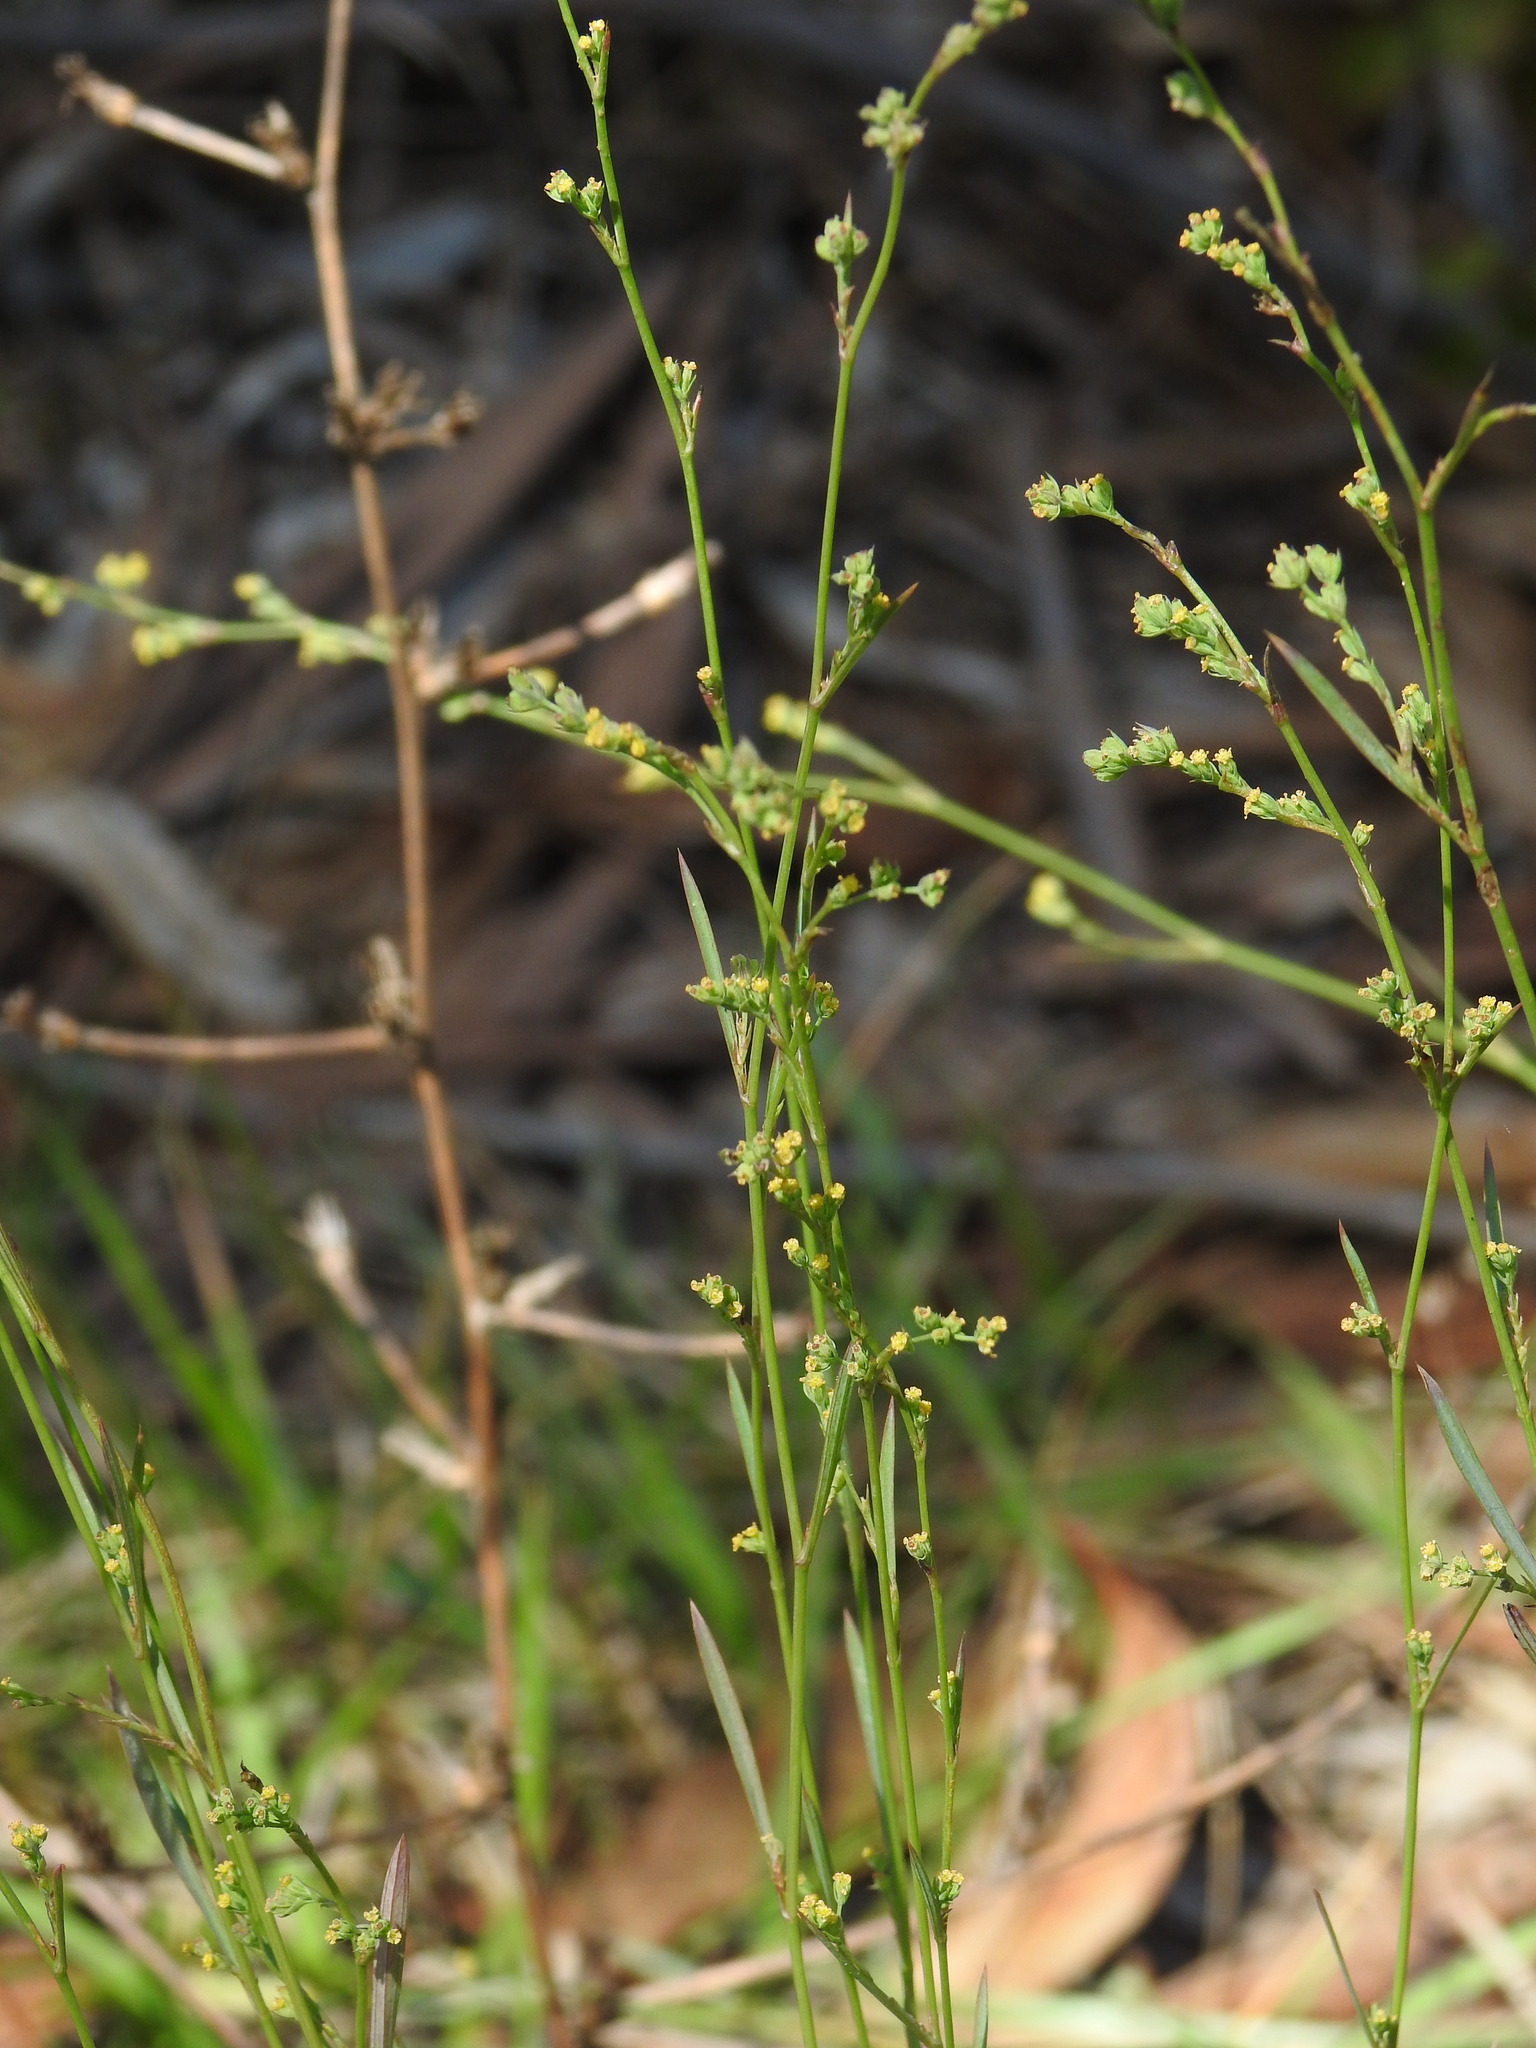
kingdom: Plantae
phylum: Tracheophyta
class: Magnoliopsida
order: Apiales
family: Apiaceae
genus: Bupleurum
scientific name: Bupleurum tenuissimum
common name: Slender hare's-ear
